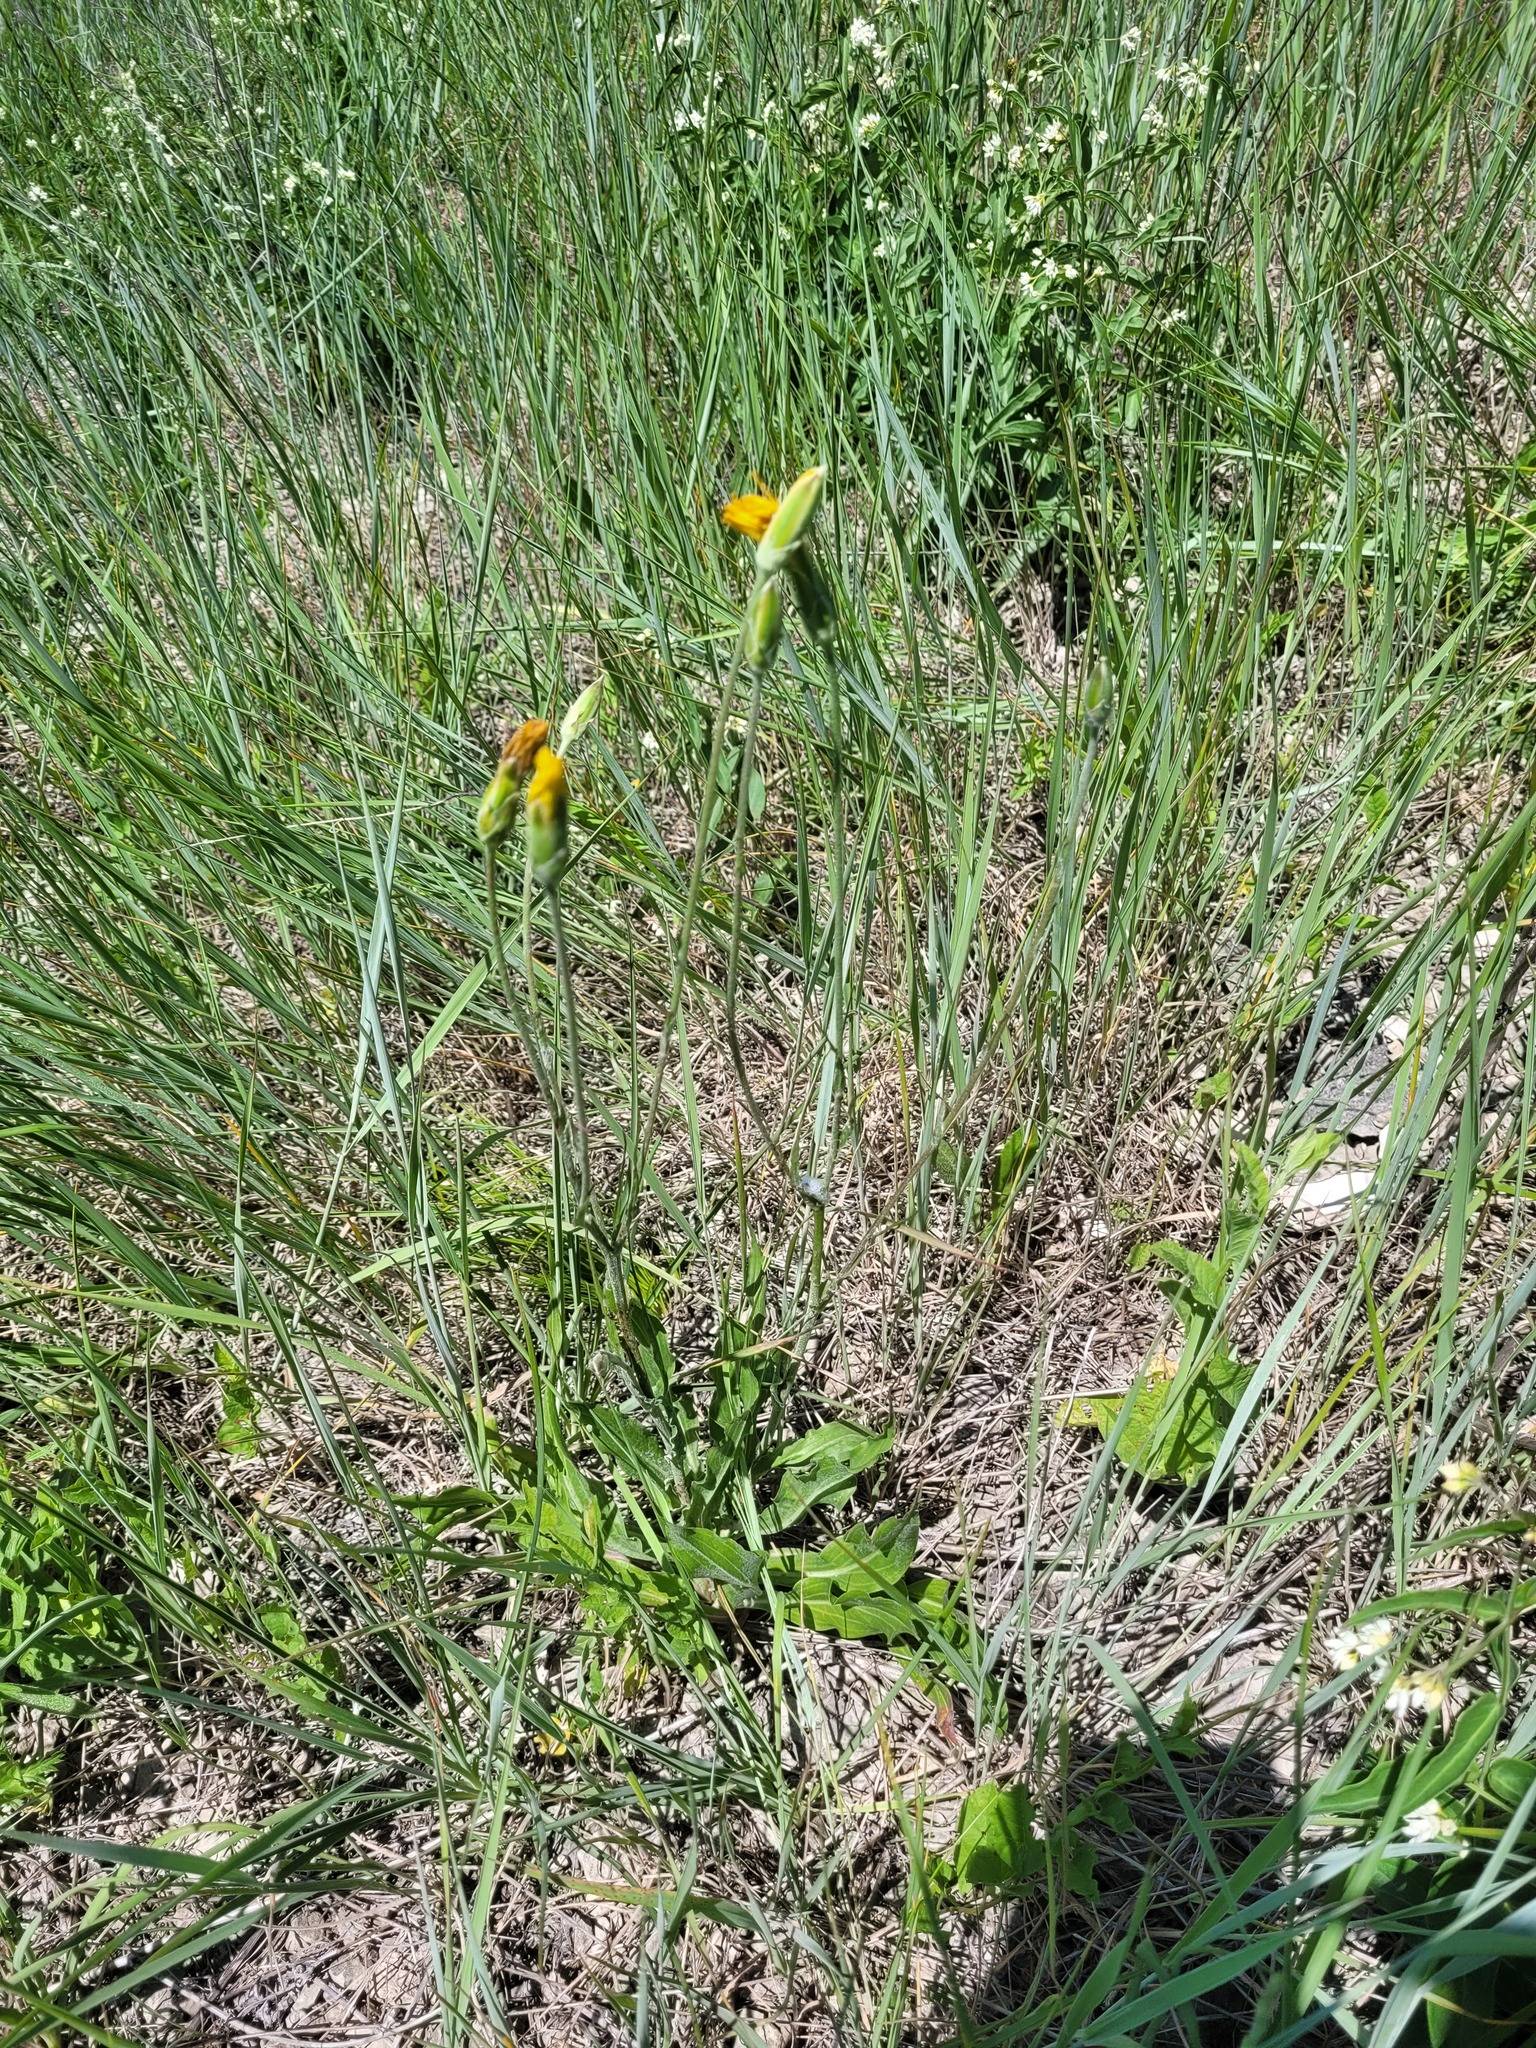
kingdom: Plantae
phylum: Tracheophyta
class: Magnoliopsida
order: Asterales
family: Asteraceae
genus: Pseudopodospermum
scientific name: Pseudopodospermum hispanicum
